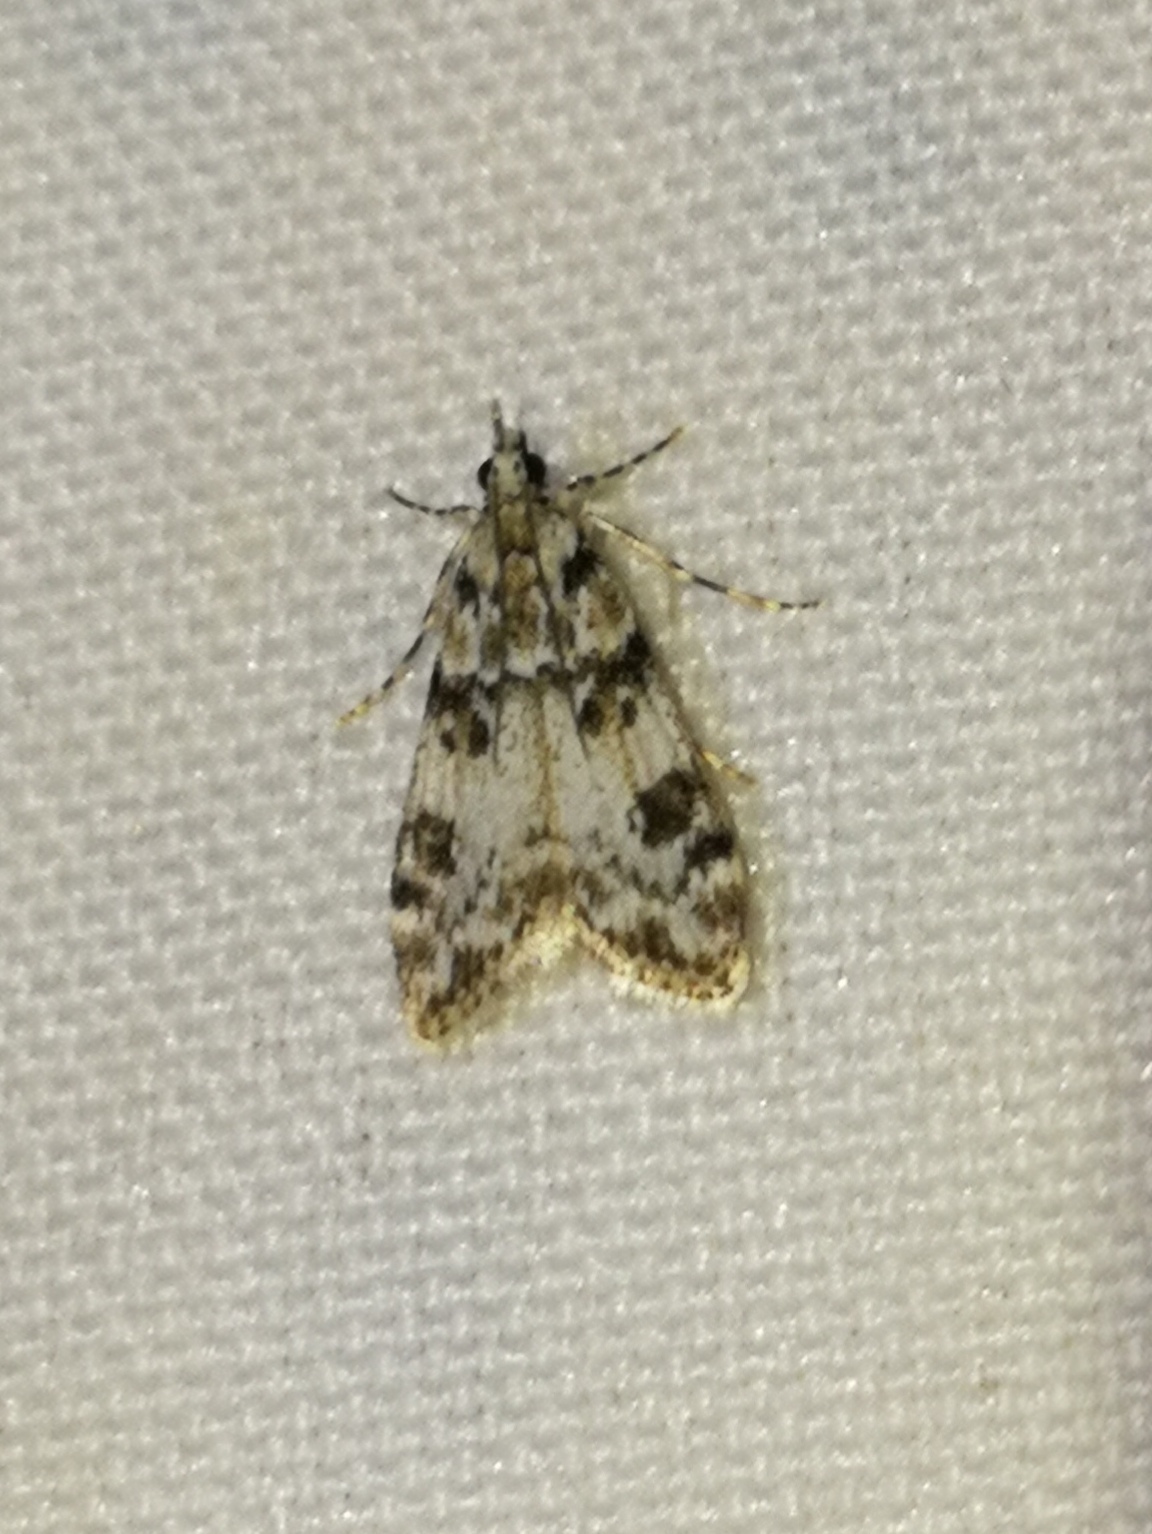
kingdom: Animalia
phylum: Arthropoda
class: Insecta
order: Lepidoptera
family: Crambidae
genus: Eudonia
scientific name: Eudonia delunella
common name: Pied grey
